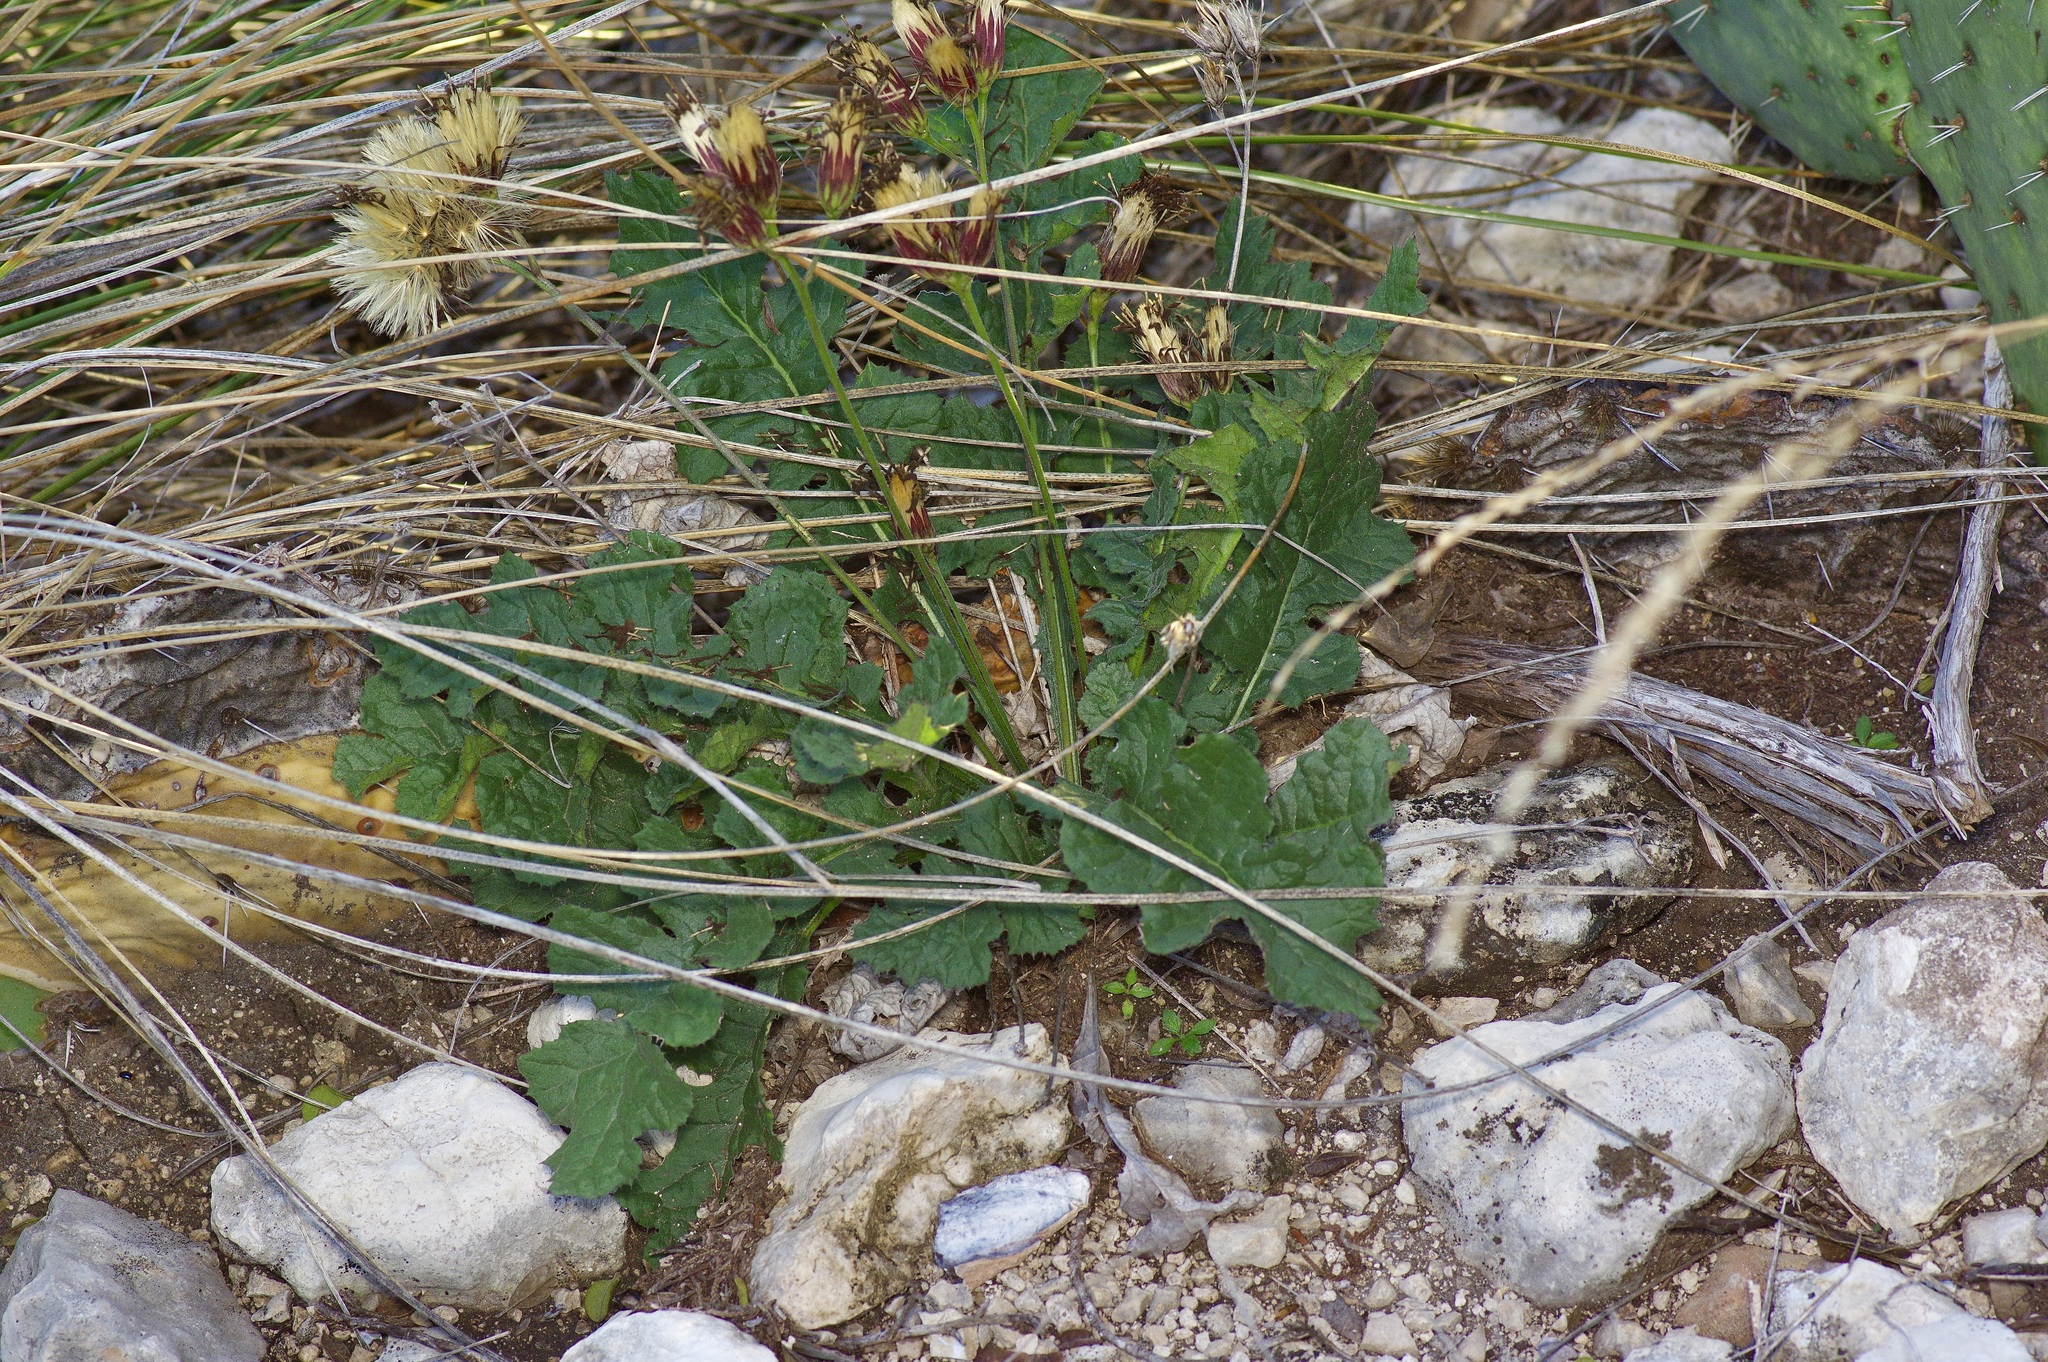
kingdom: Plantae
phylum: Tracheophyta
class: Magnoliopsida
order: Asterales
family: Asteraceae
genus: Acourtia
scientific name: Acourtia runcinata
